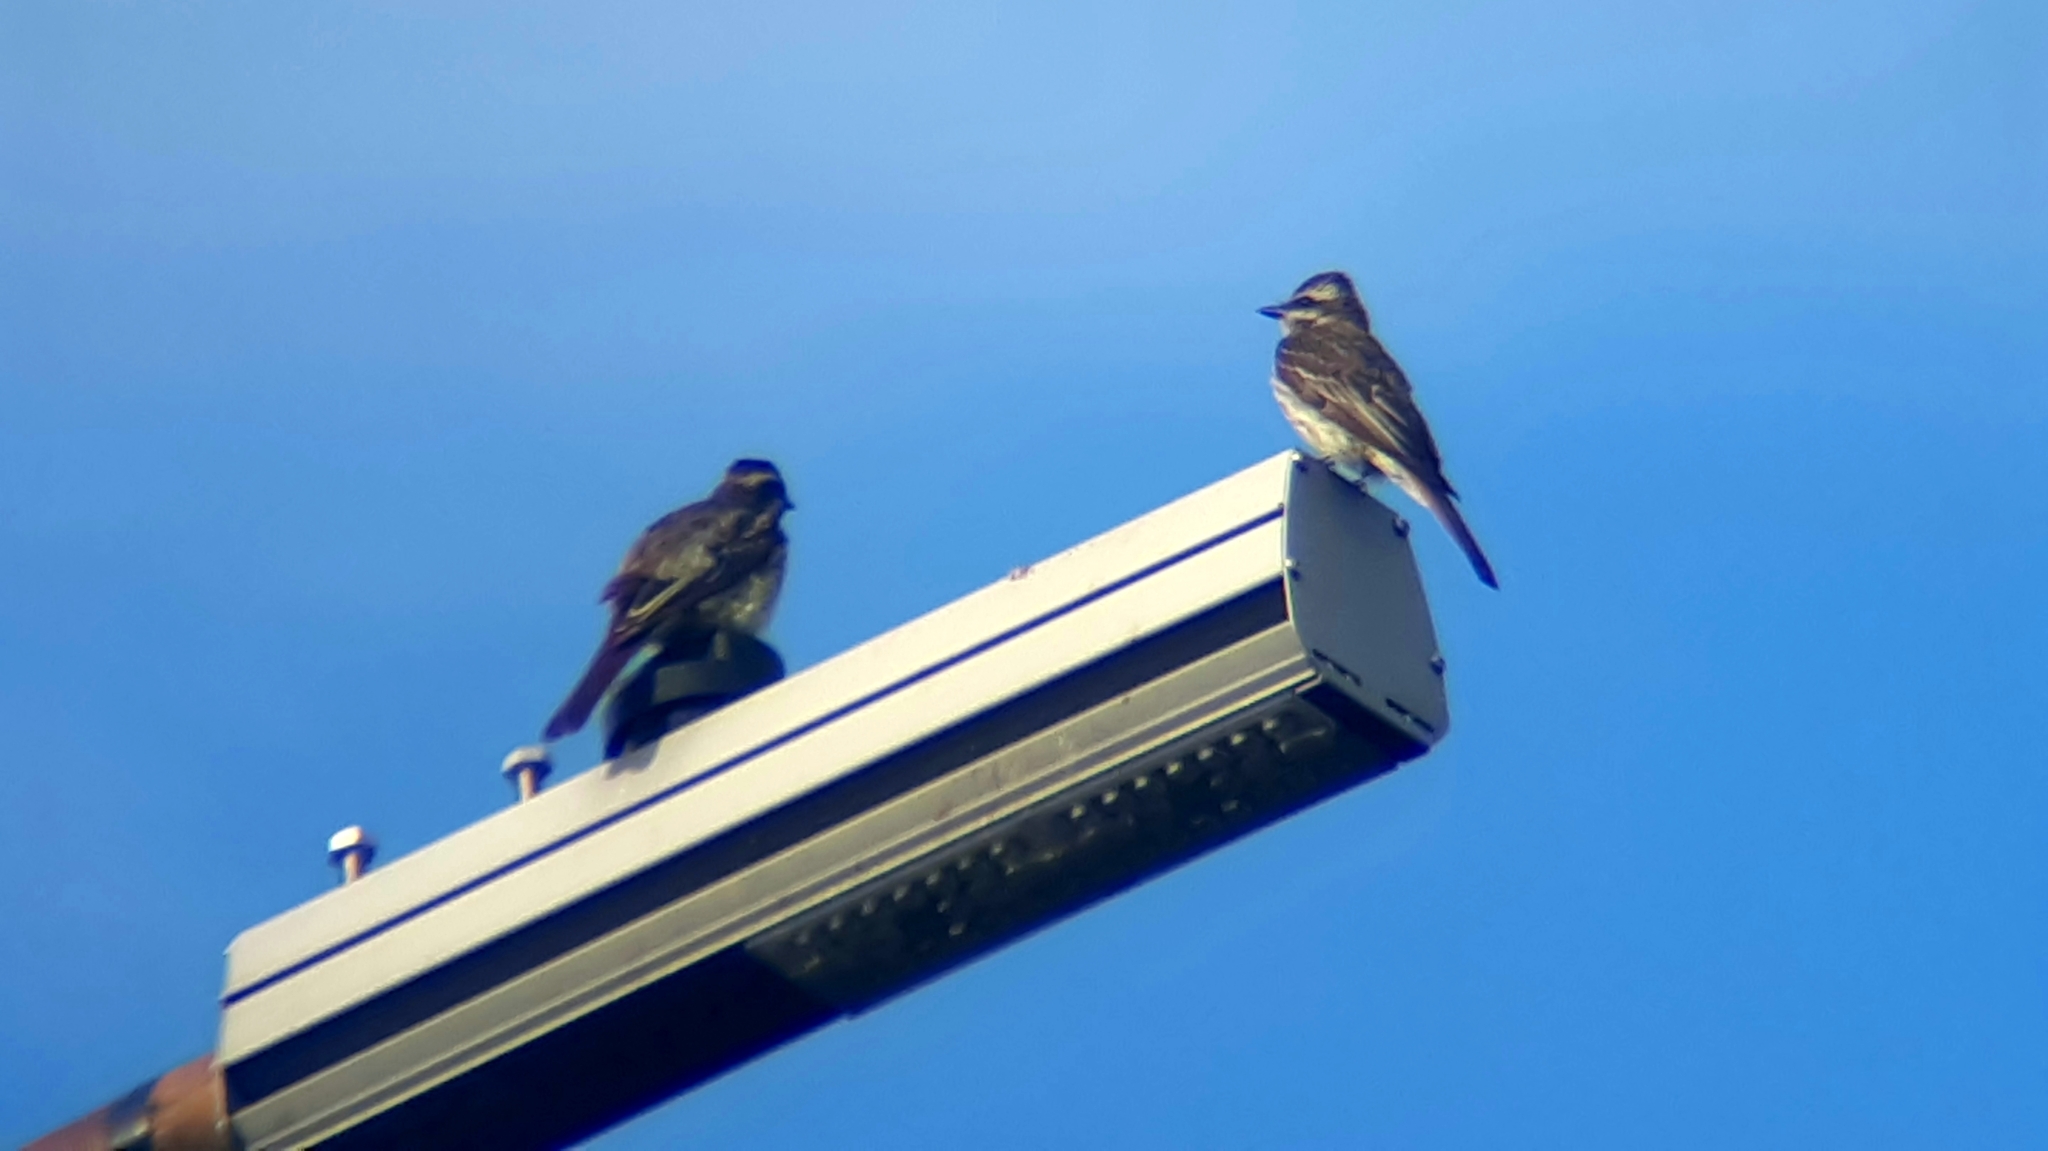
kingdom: Animalia
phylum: Chordata
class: Aves
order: Passeriformes
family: Tyrannidae
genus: Empidonomus
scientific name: Empidonomus varius
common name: Variegated flycatcher
